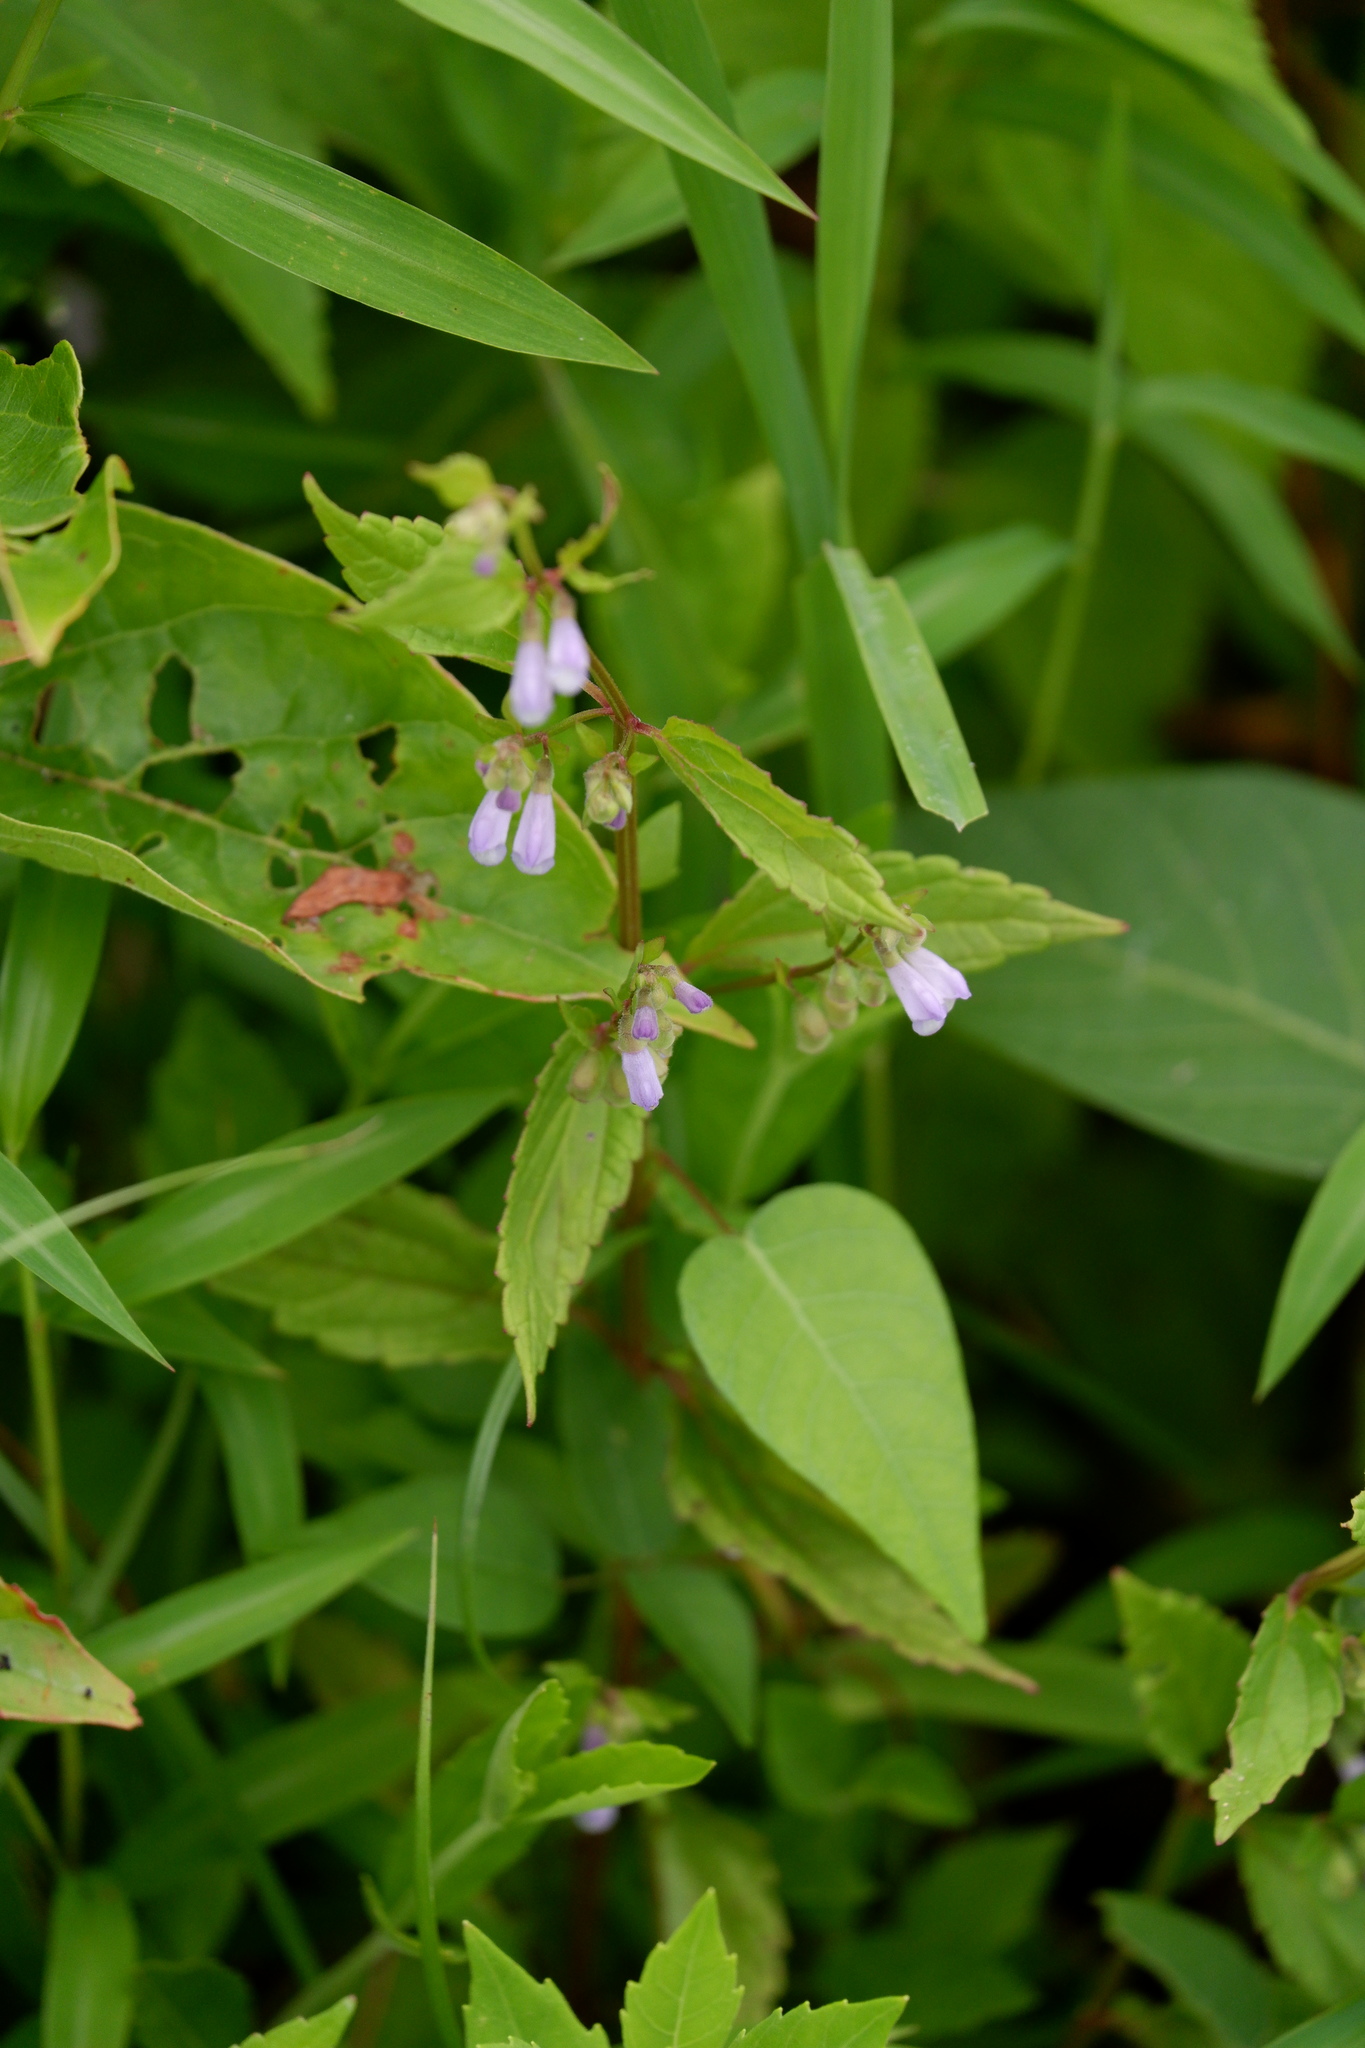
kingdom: Plantae
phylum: Tracheophyta
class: Magnoliopsida
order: Lamiales
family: Lamiaceae
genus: Scutellaria
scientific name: Scutellaria lateriflora
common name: Blue skullcap
